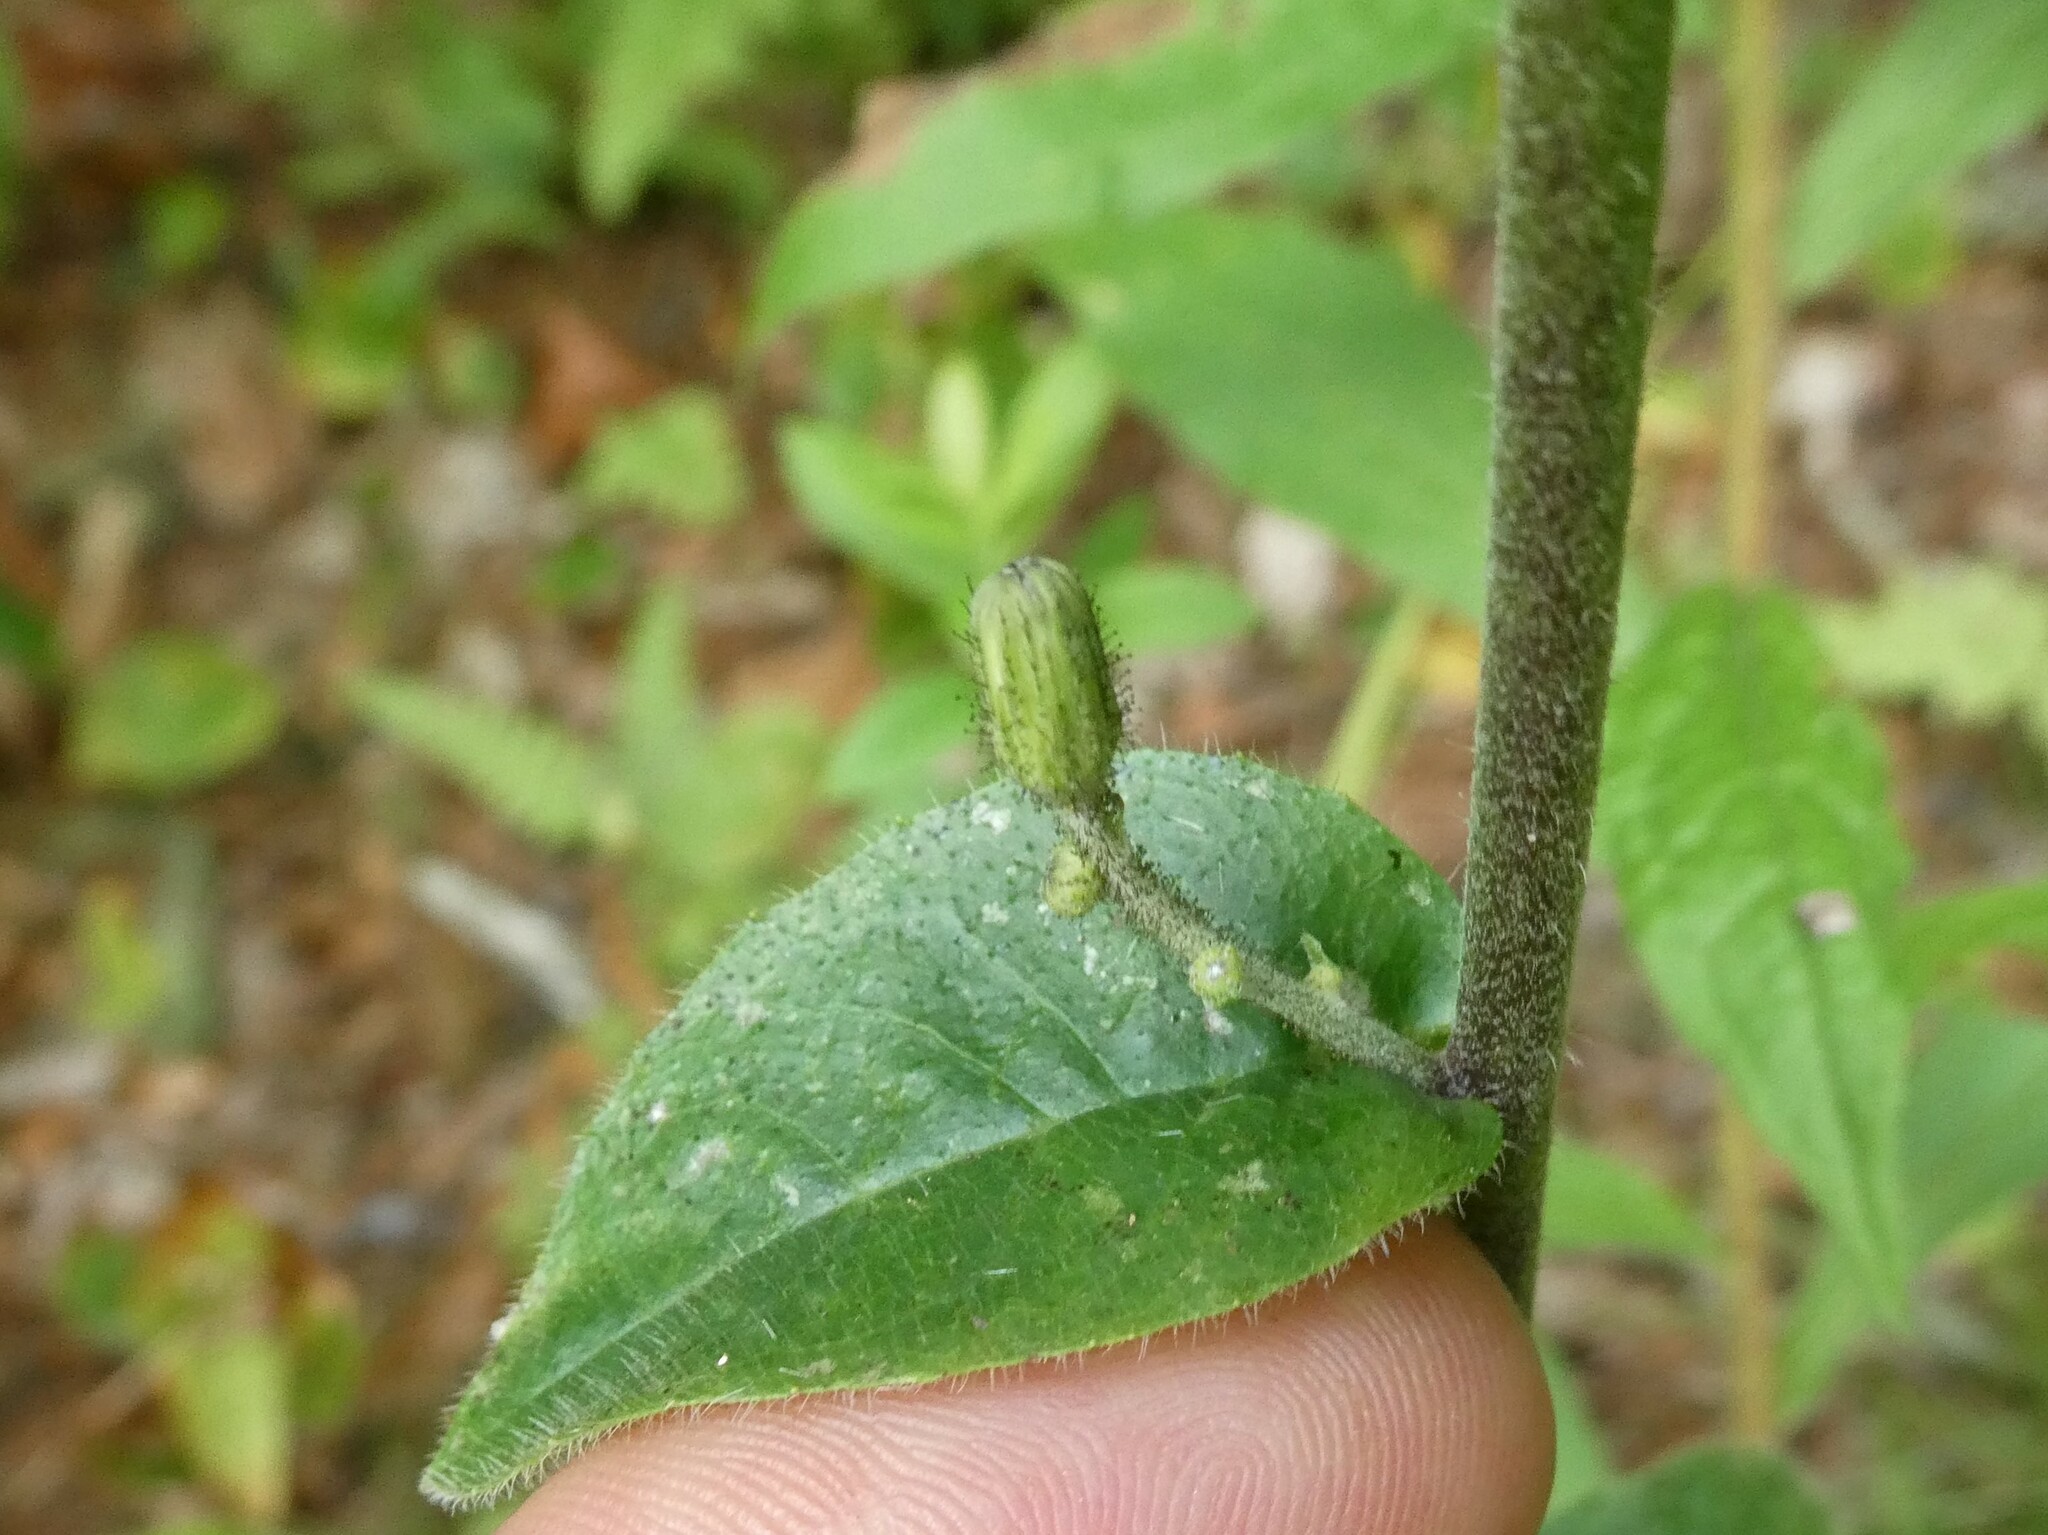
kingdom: Plantae
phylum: Tracheophyta
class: Magnoliopsida
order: Asterales
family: Asteraceae
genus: Hieracium
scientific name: Hieracium scabrum
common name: Rough hawkweed
